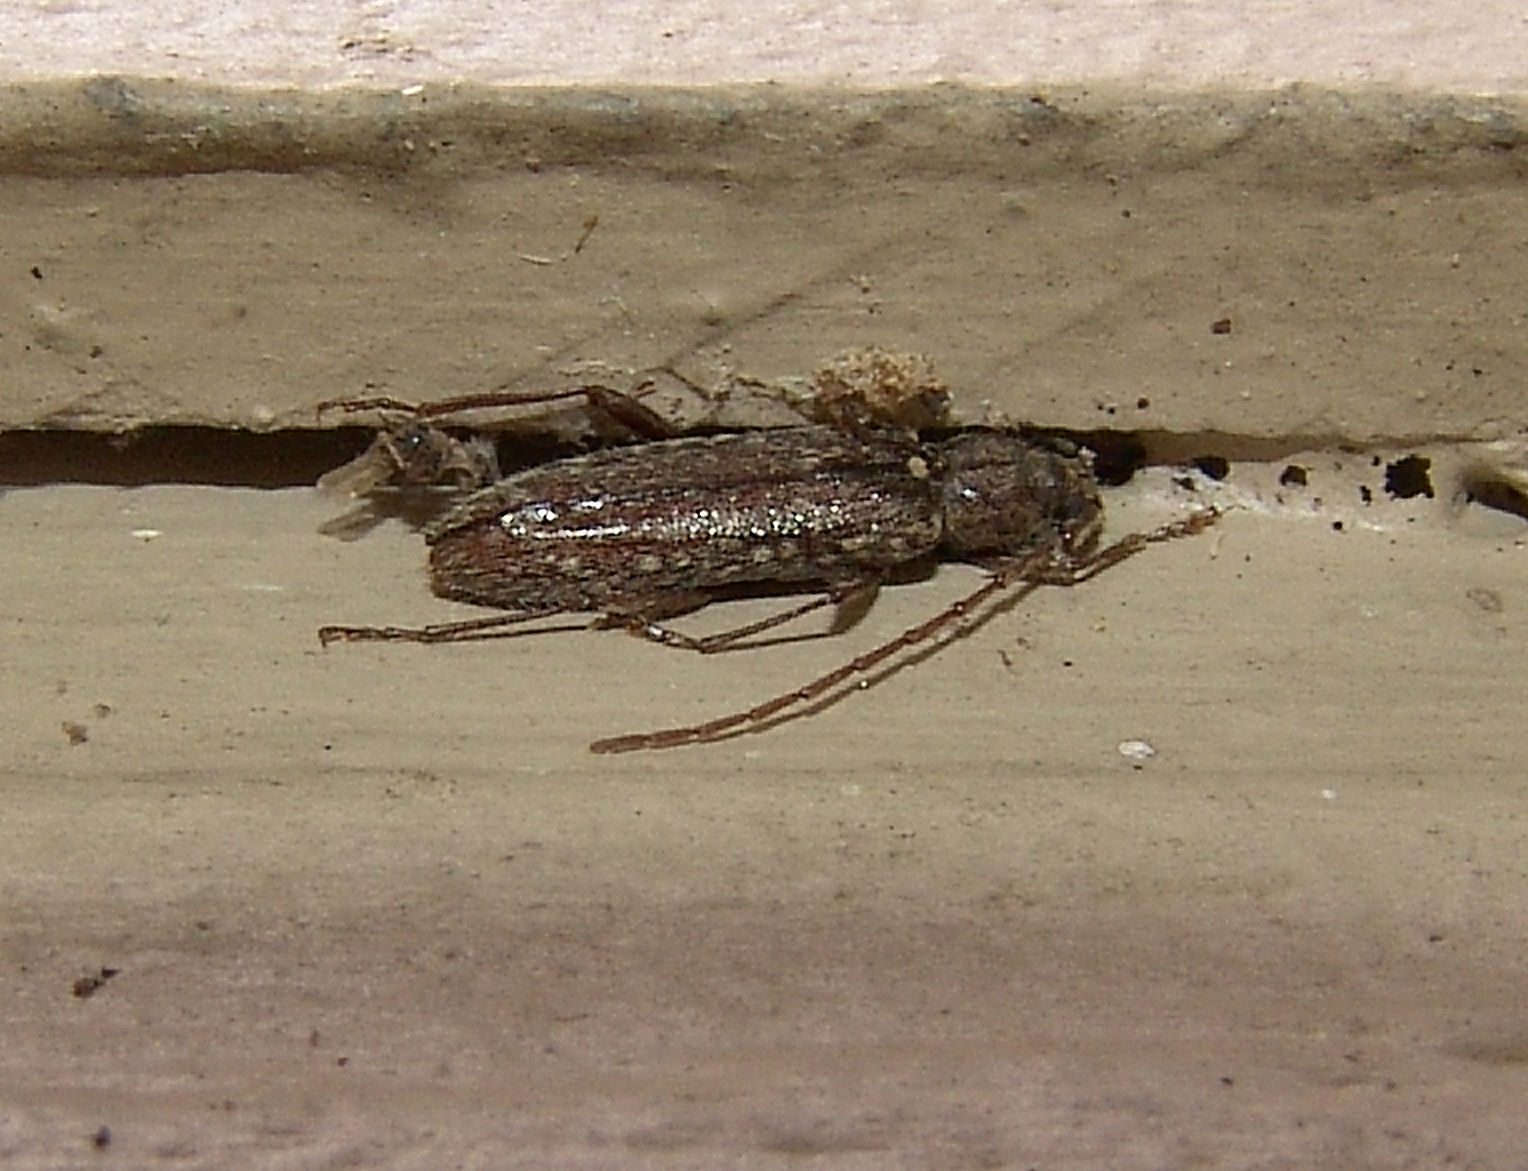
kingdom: Animalia
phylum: Arthropoda
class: Insecta
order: Coleoptera
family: Cerambycidae
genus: Anelaphus
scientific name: Anelaphus pumilus
